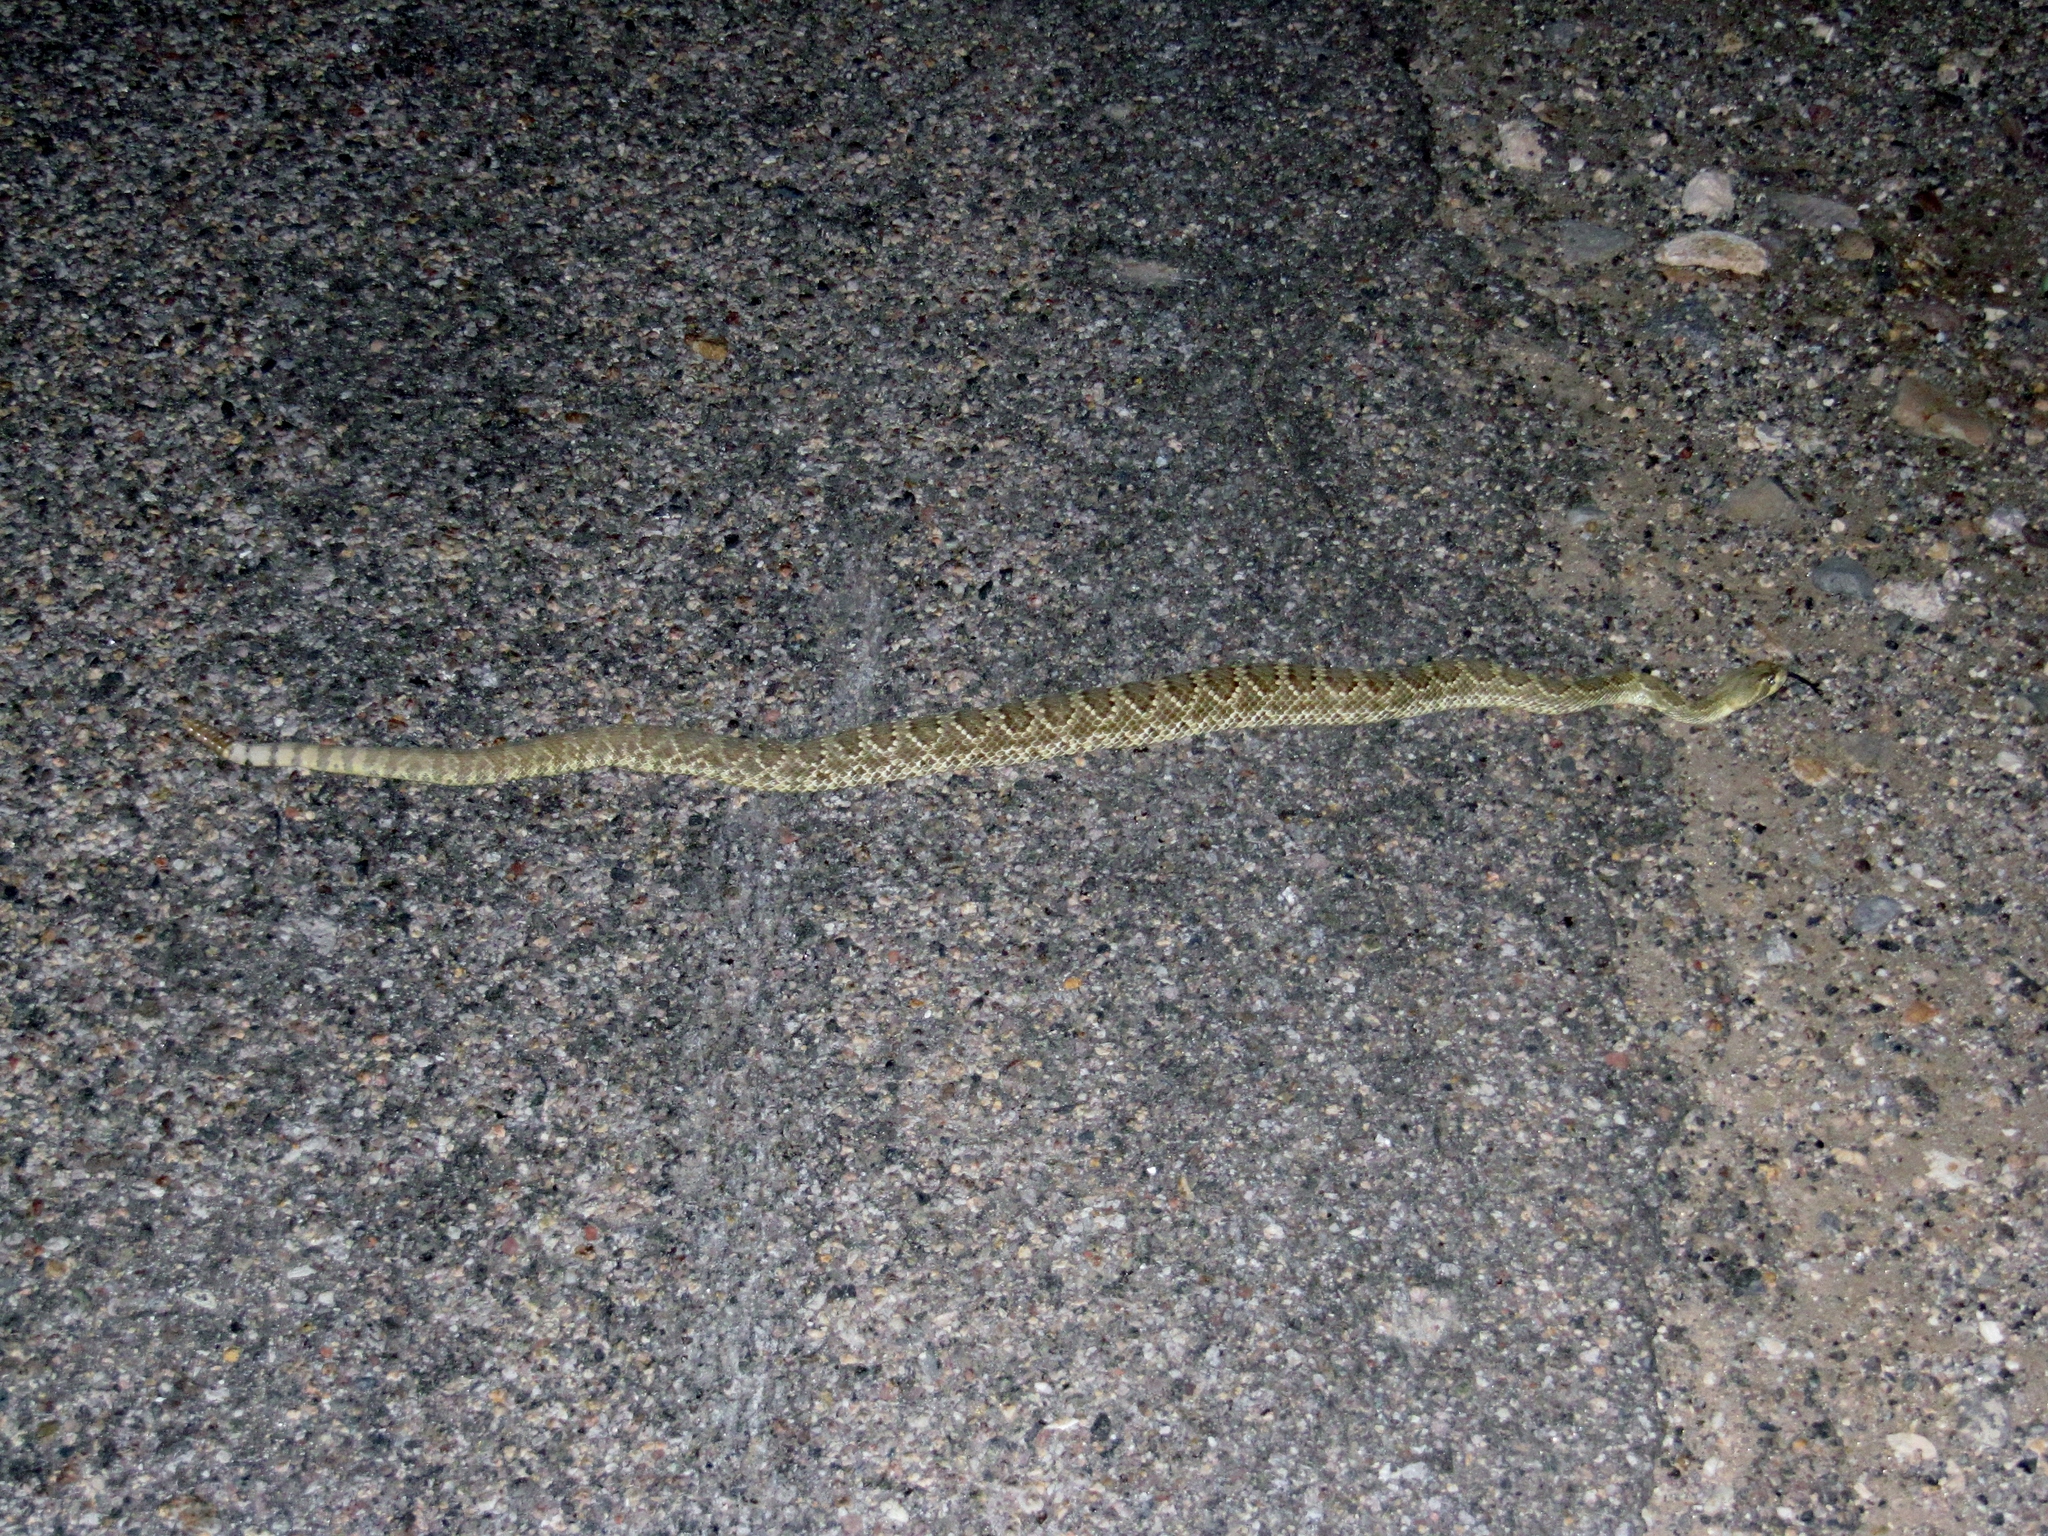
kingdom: Animalia
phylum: Chordata
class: Squamata
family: Viperidae
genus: Crotalus
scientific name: Crotalus scutulatus
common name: Scutulatus
